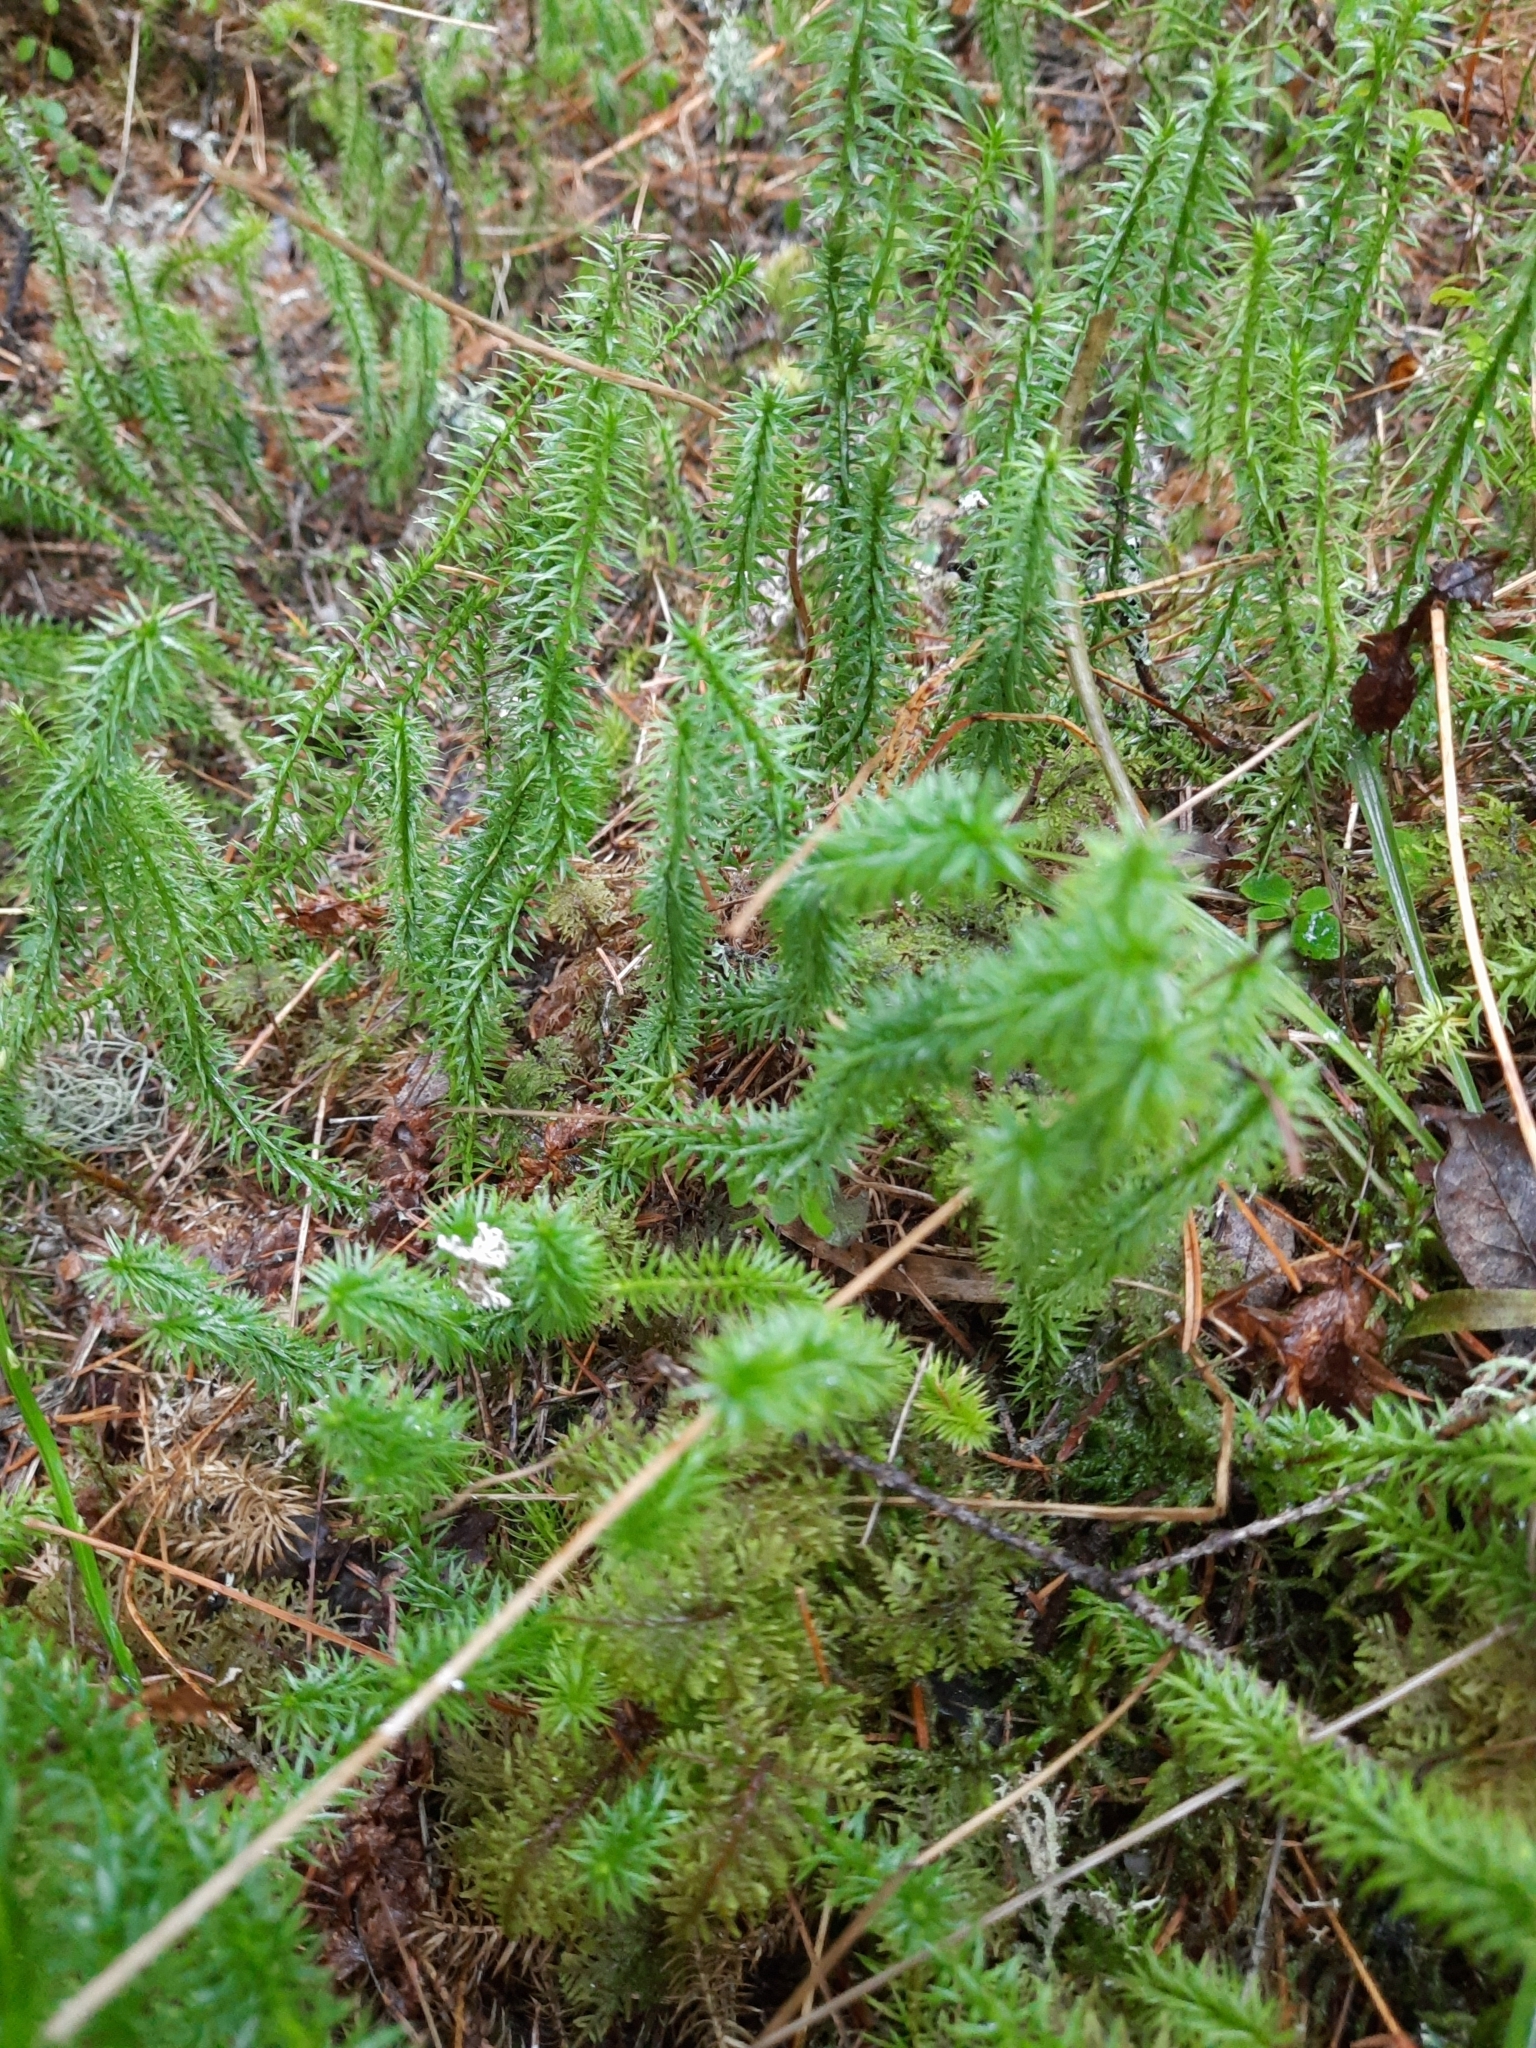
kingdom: Plantae
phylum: Tracheophyta
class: Lycopodiopsida
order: Lycopodiales
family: Lycopodiaceae
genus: Spinulum
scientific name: Spinulum annotinum
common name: Interrupted club-moss
